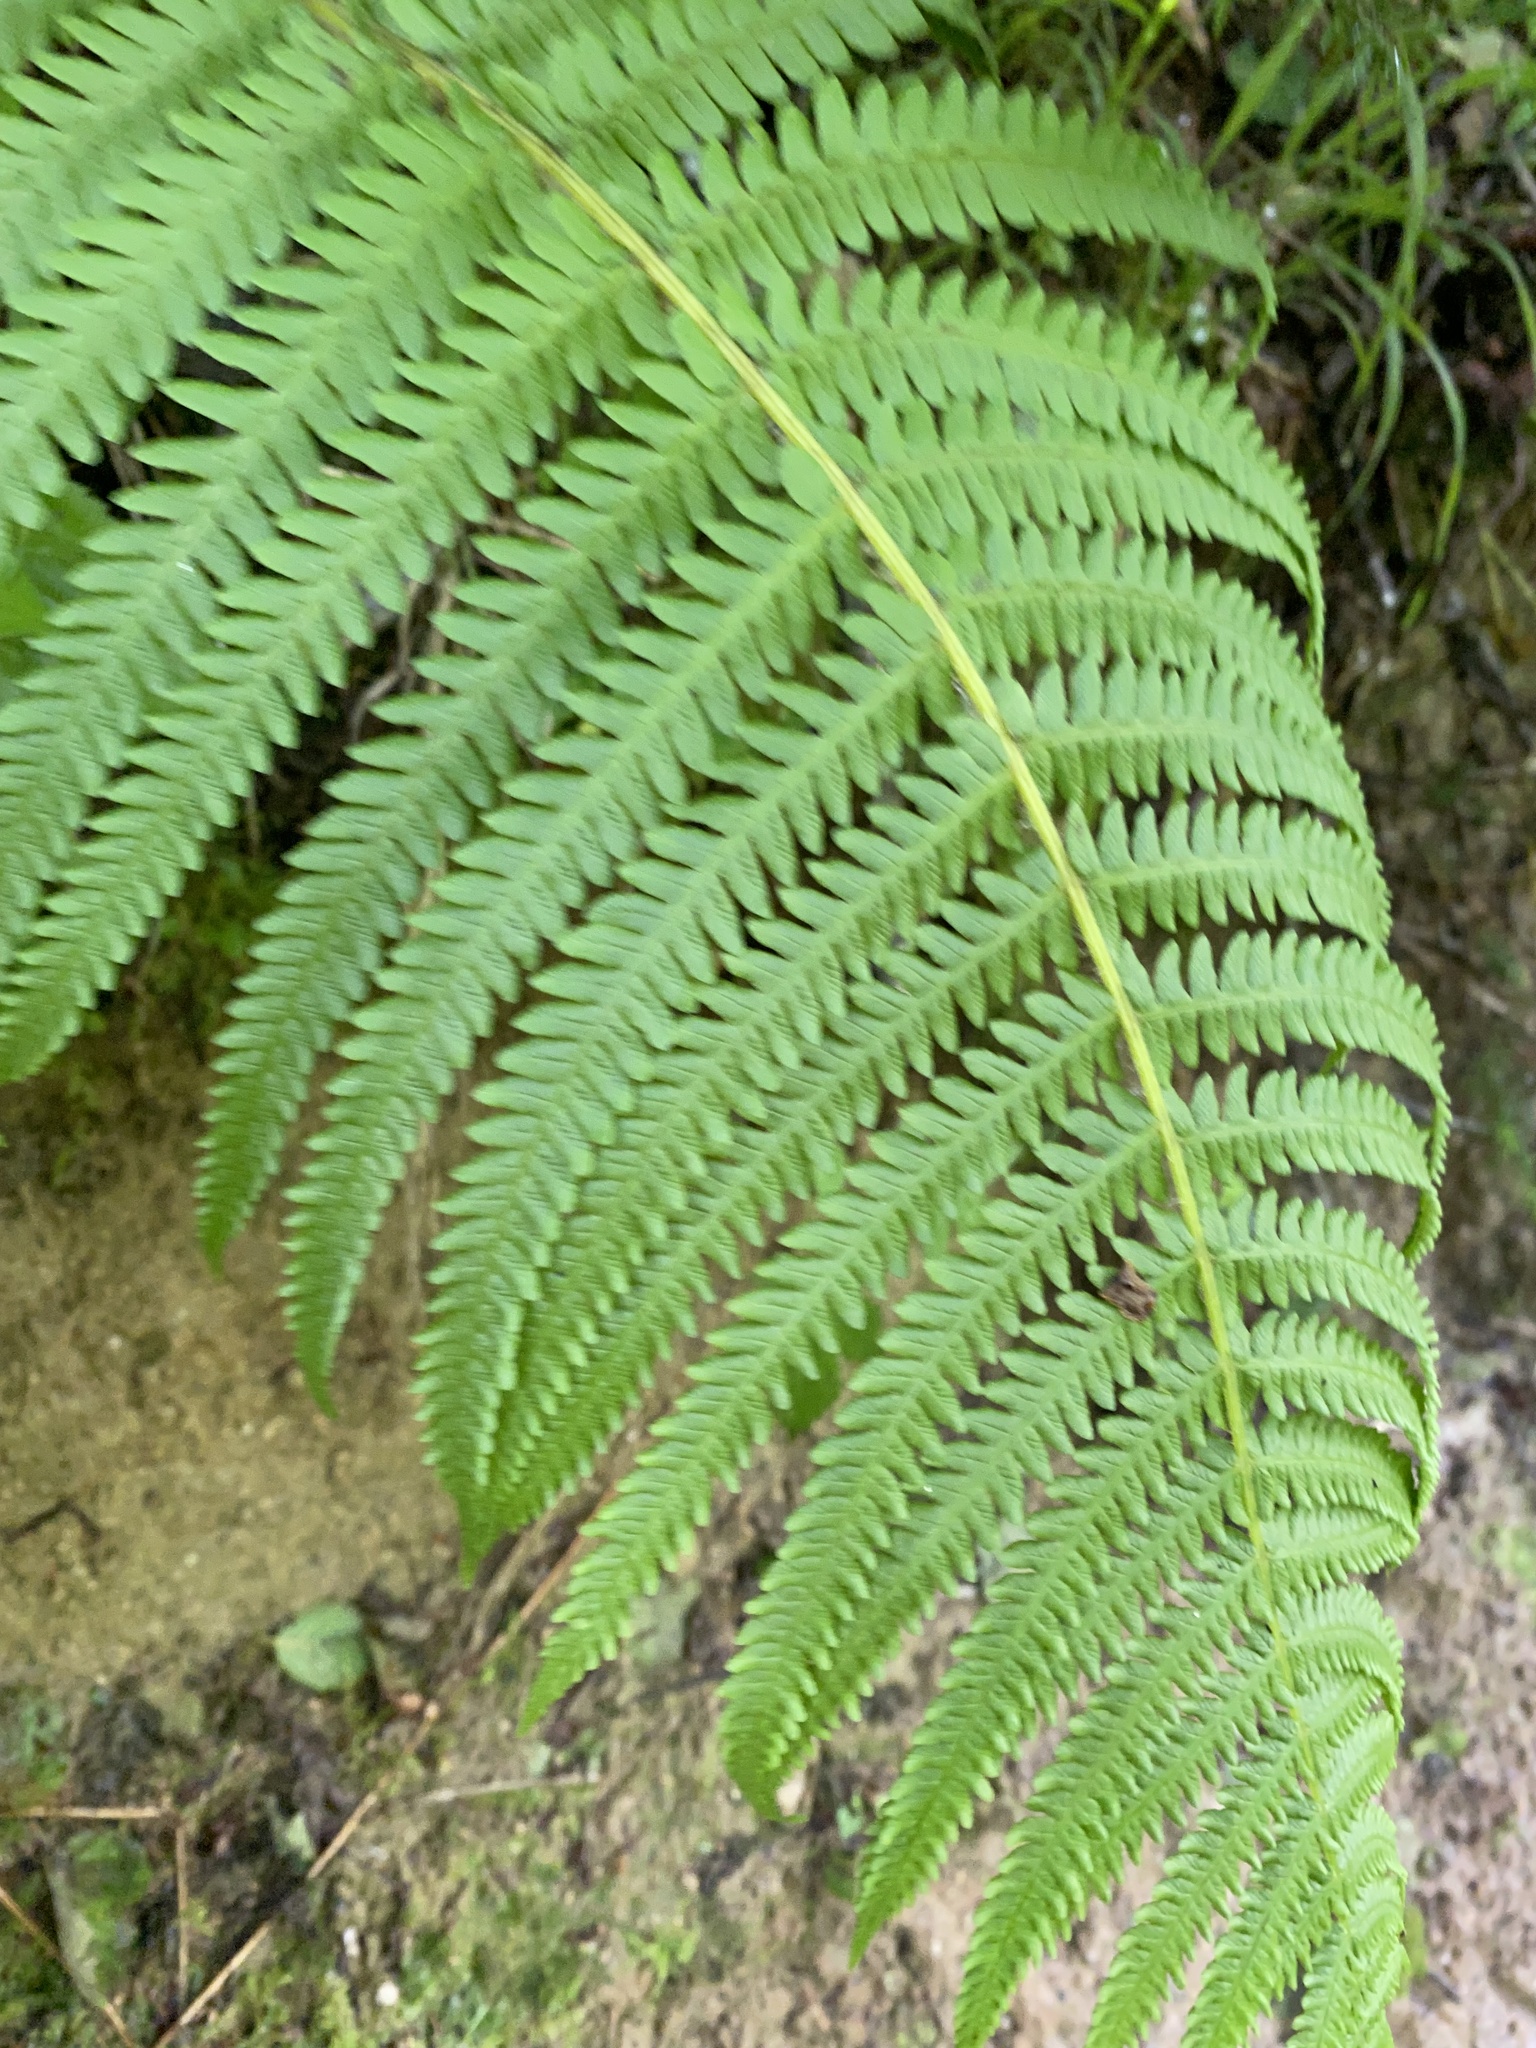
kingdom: Plantae
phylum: Tracheophyta
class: Polypodiopsida
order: Polypodiales
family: Thelypteridaceae
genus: Oreopteris
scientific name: Oreopteris quelpartensis
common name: Mountain fern
